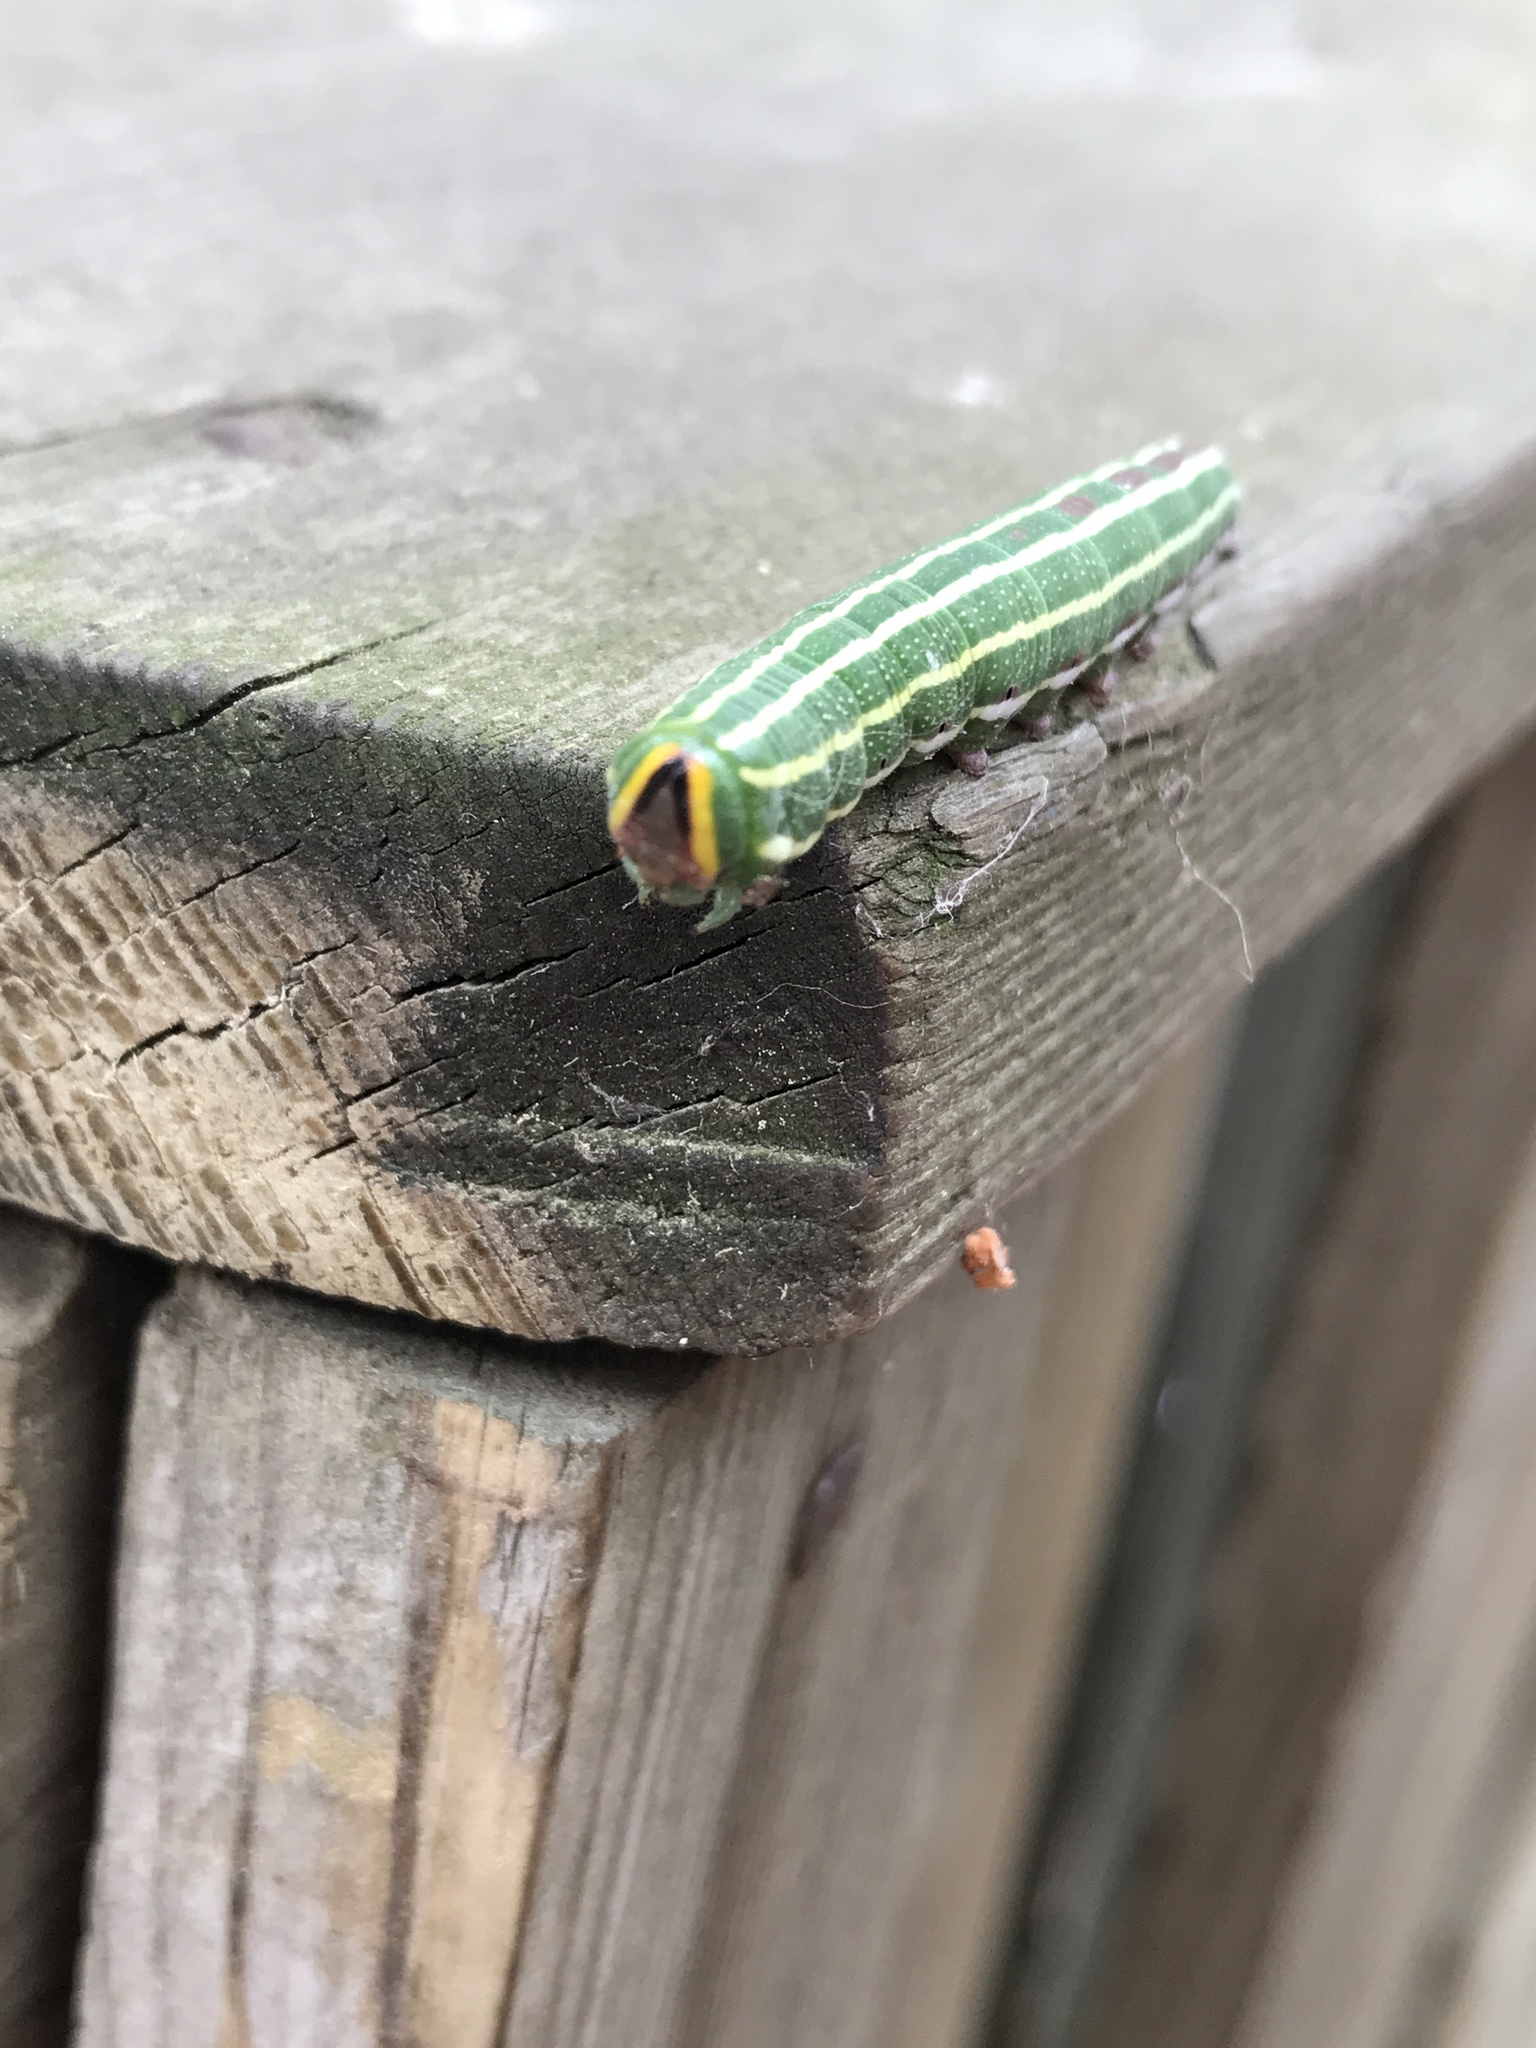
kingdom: Animalia
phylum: Arthropoda
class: Insecta
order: Lepidoptera
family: Sphingidae
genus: Lapara
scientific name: Lapara bombycoides
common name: Northern pine sphinx
